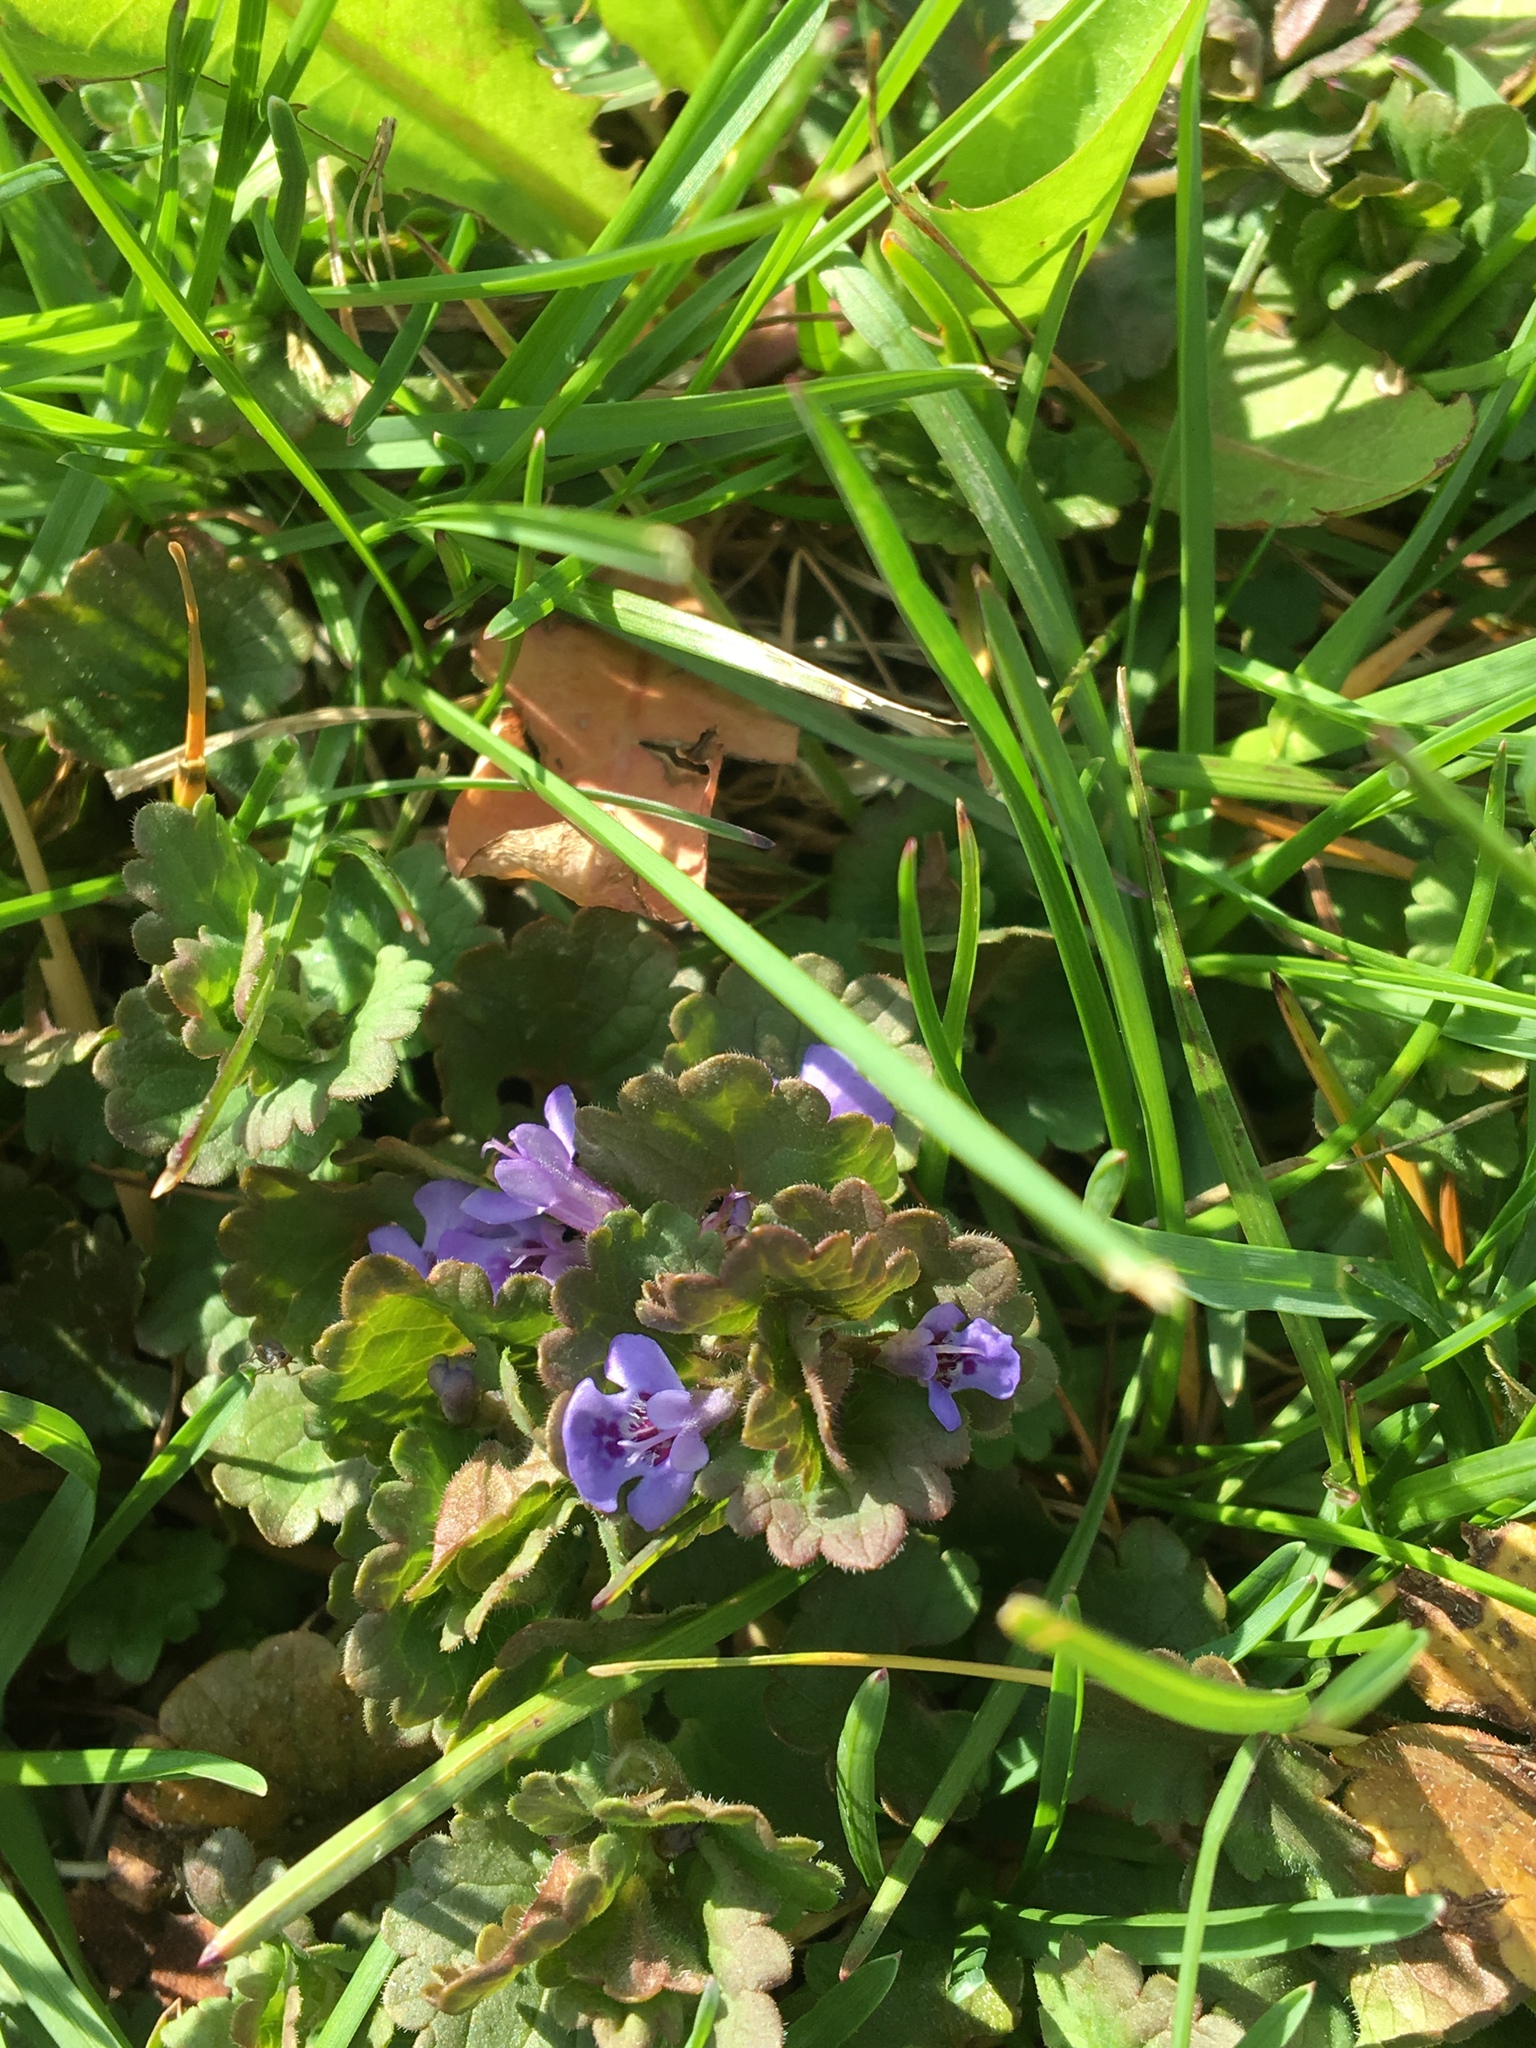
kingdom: Plantae
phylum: Tracheophyta
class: Magnoliopsida
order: Lamiales
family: Lamiaceae
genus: Glechoma
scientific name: Glechoma hederacea
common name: Ground ivy
